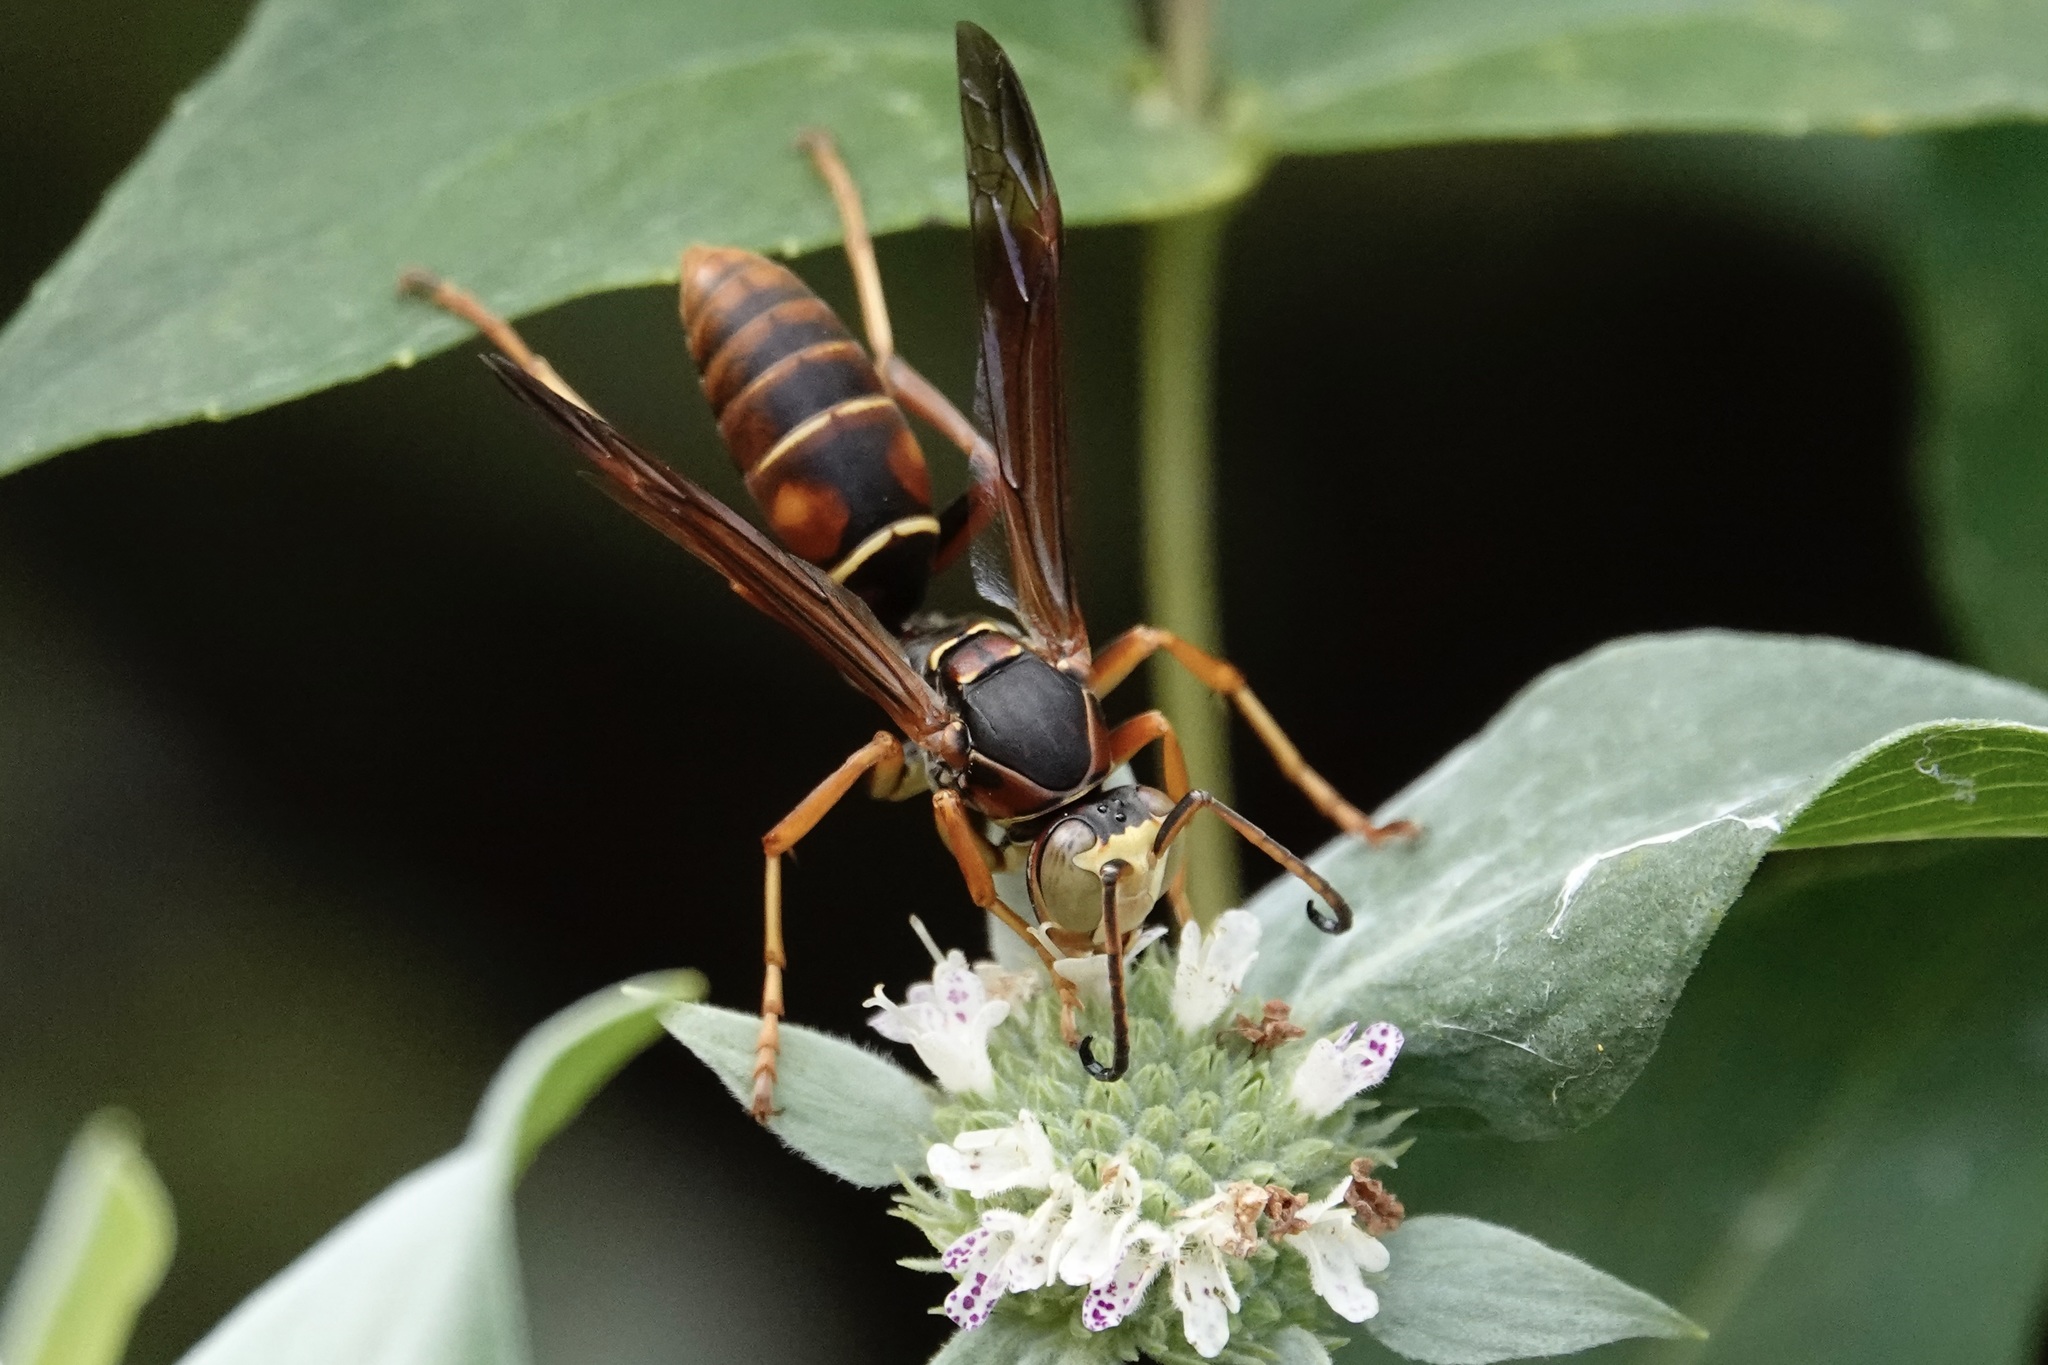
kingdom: Animalia
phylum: Arthropoda
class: Insecta
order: Hymenoptera
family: Eumenidae
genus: Polistes
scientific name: Polistes fuscatus
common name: Dark paper wasp
